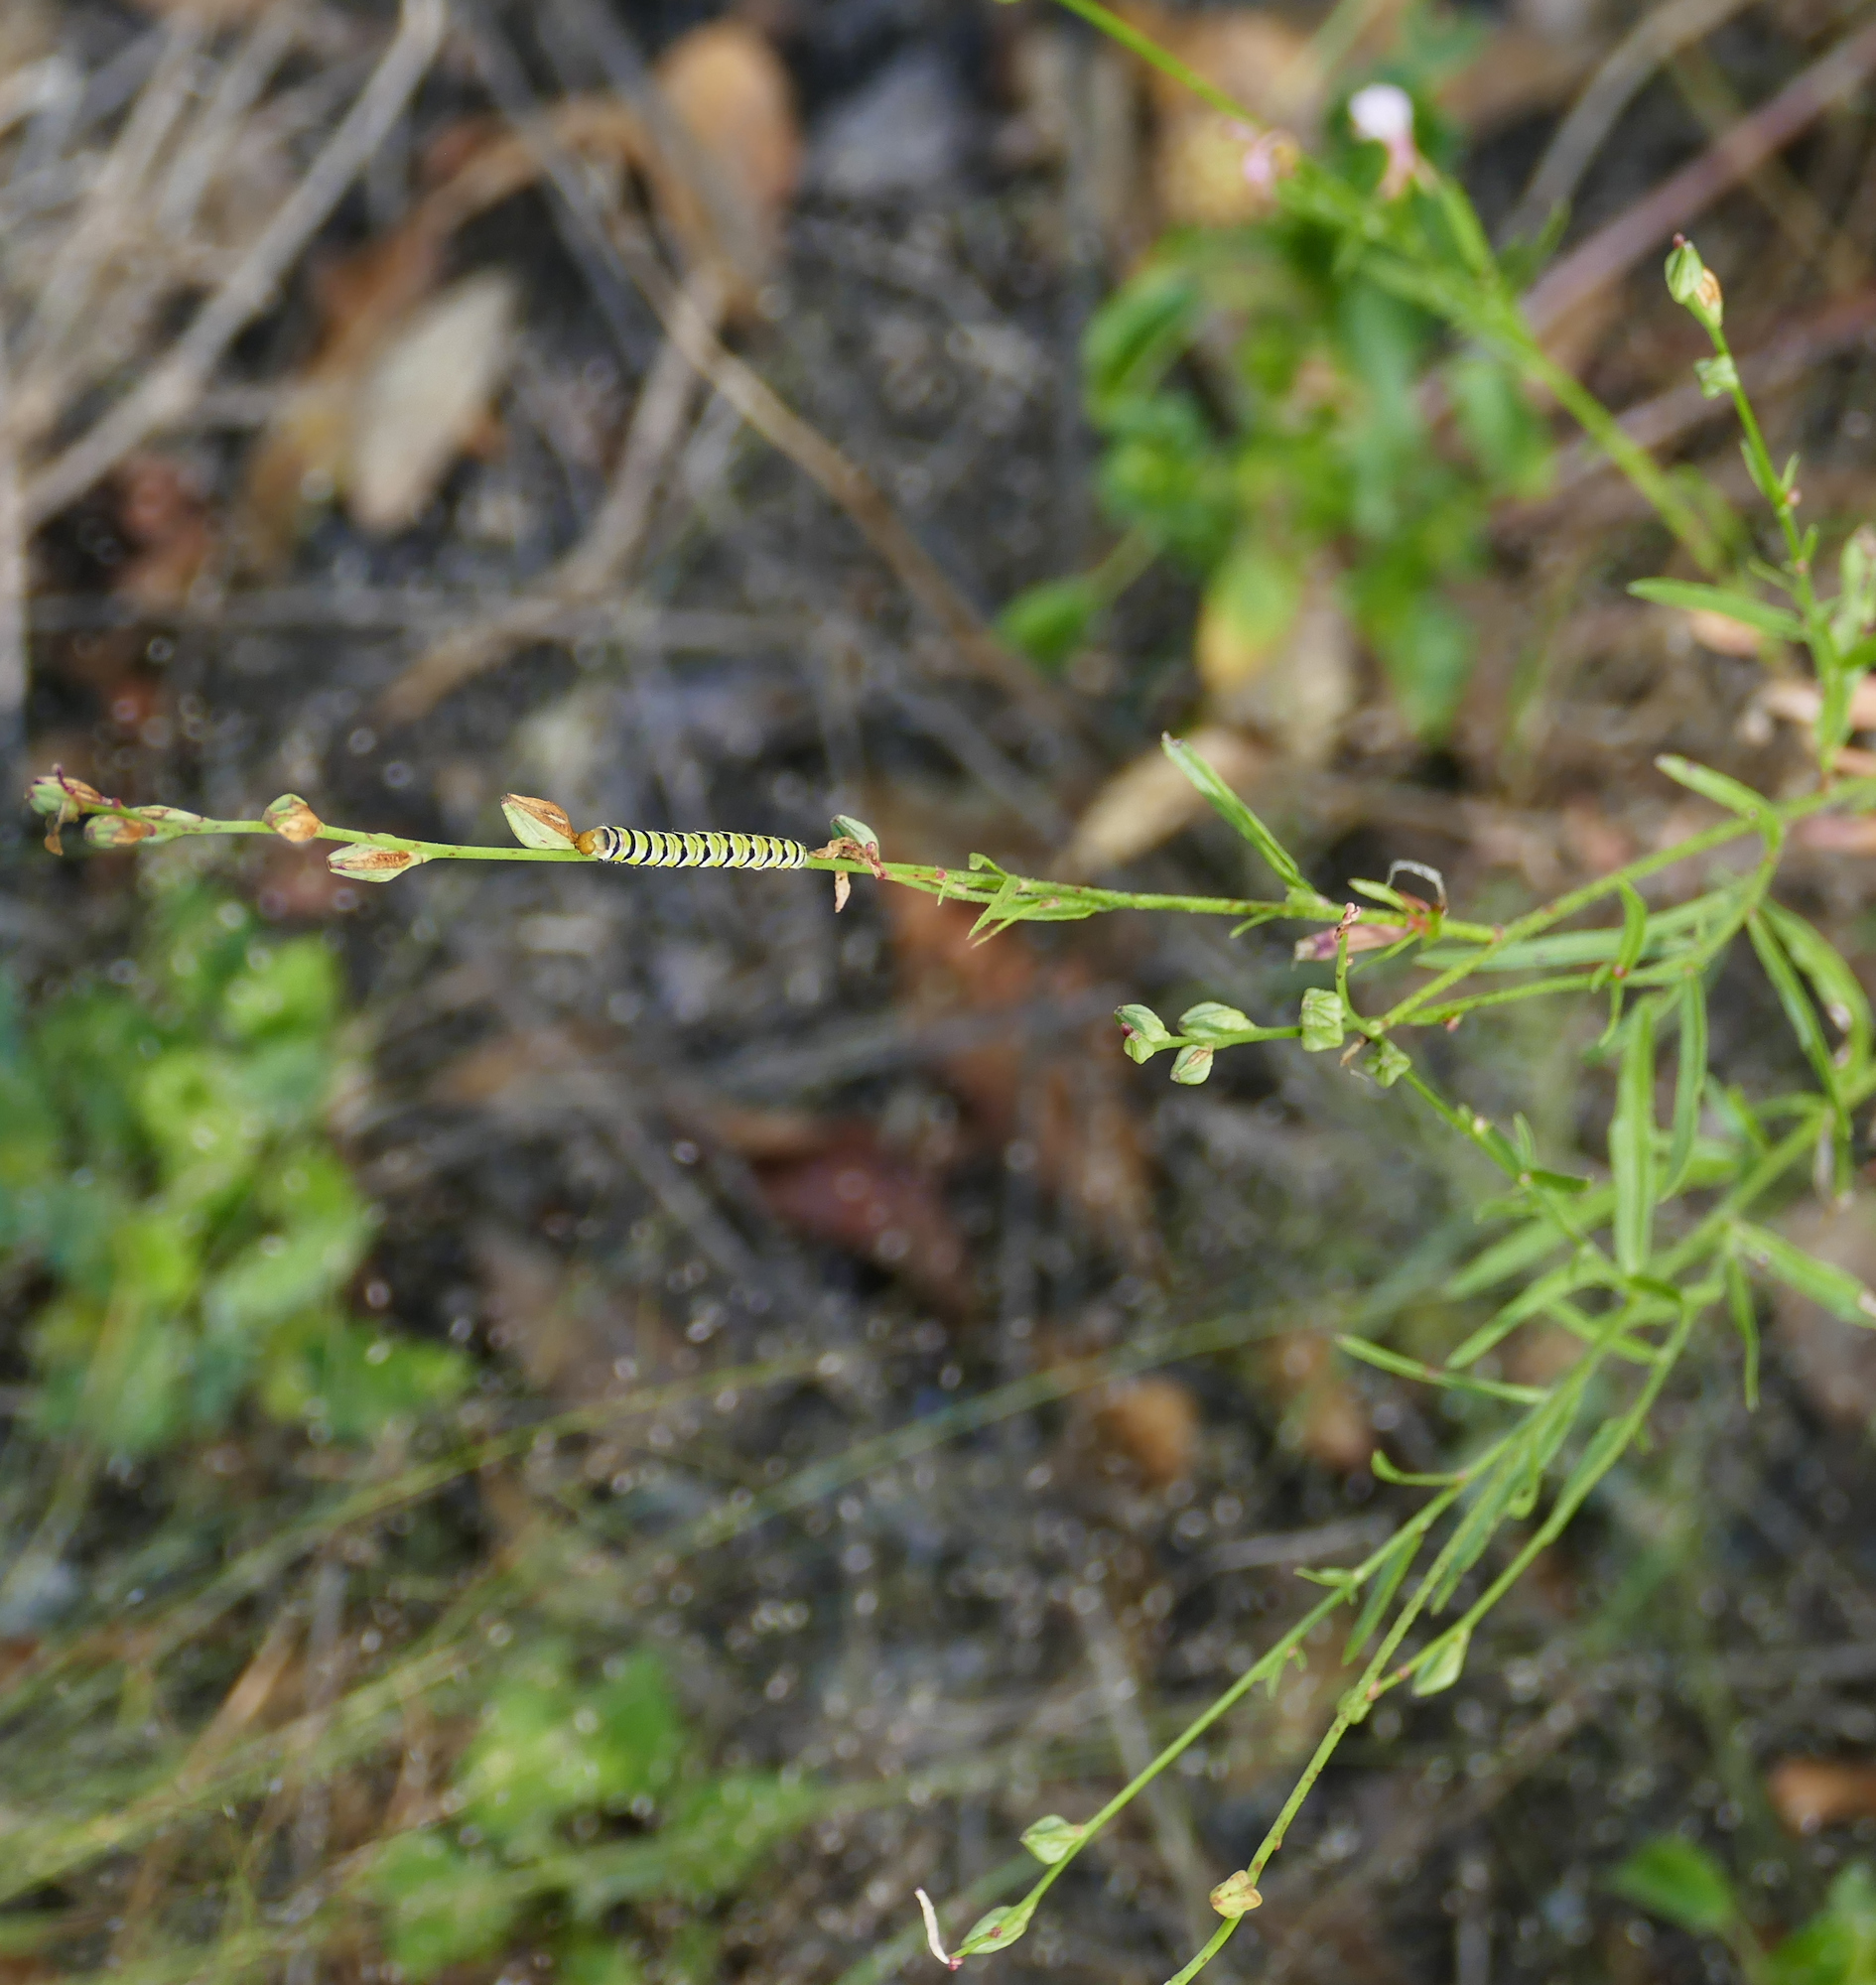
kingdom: Animalia
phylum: Arthropoda
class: Insecta
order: Lepidoptera
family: Noctuidae
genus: Schinia
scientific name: Schinia gaurae
